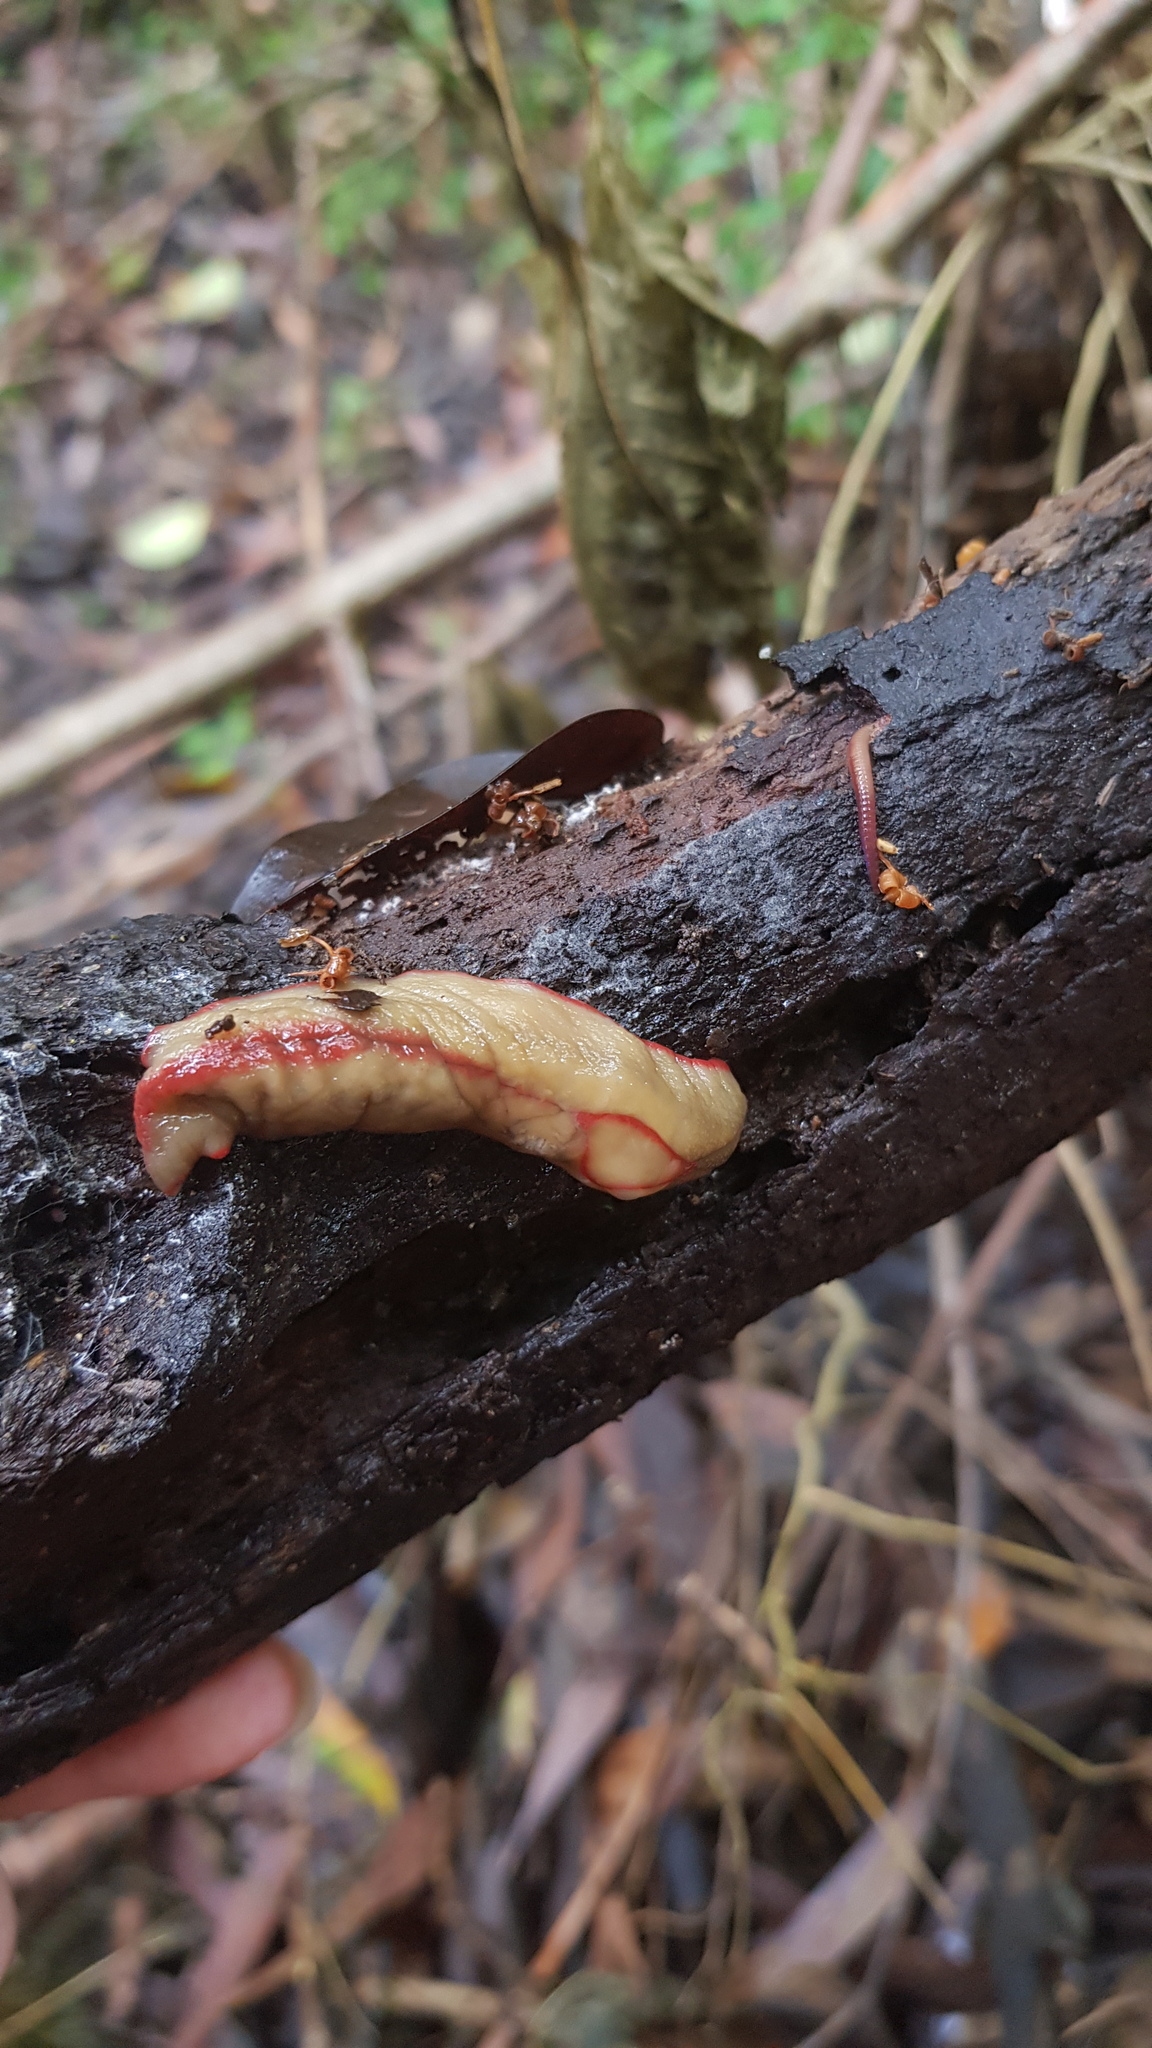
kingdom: Animalia
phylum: Mollusca
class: Gastropoda
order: Stylommatophora
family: Athoracophoridae
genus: Triboniophorus
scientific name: Triboniophorus graeffei
